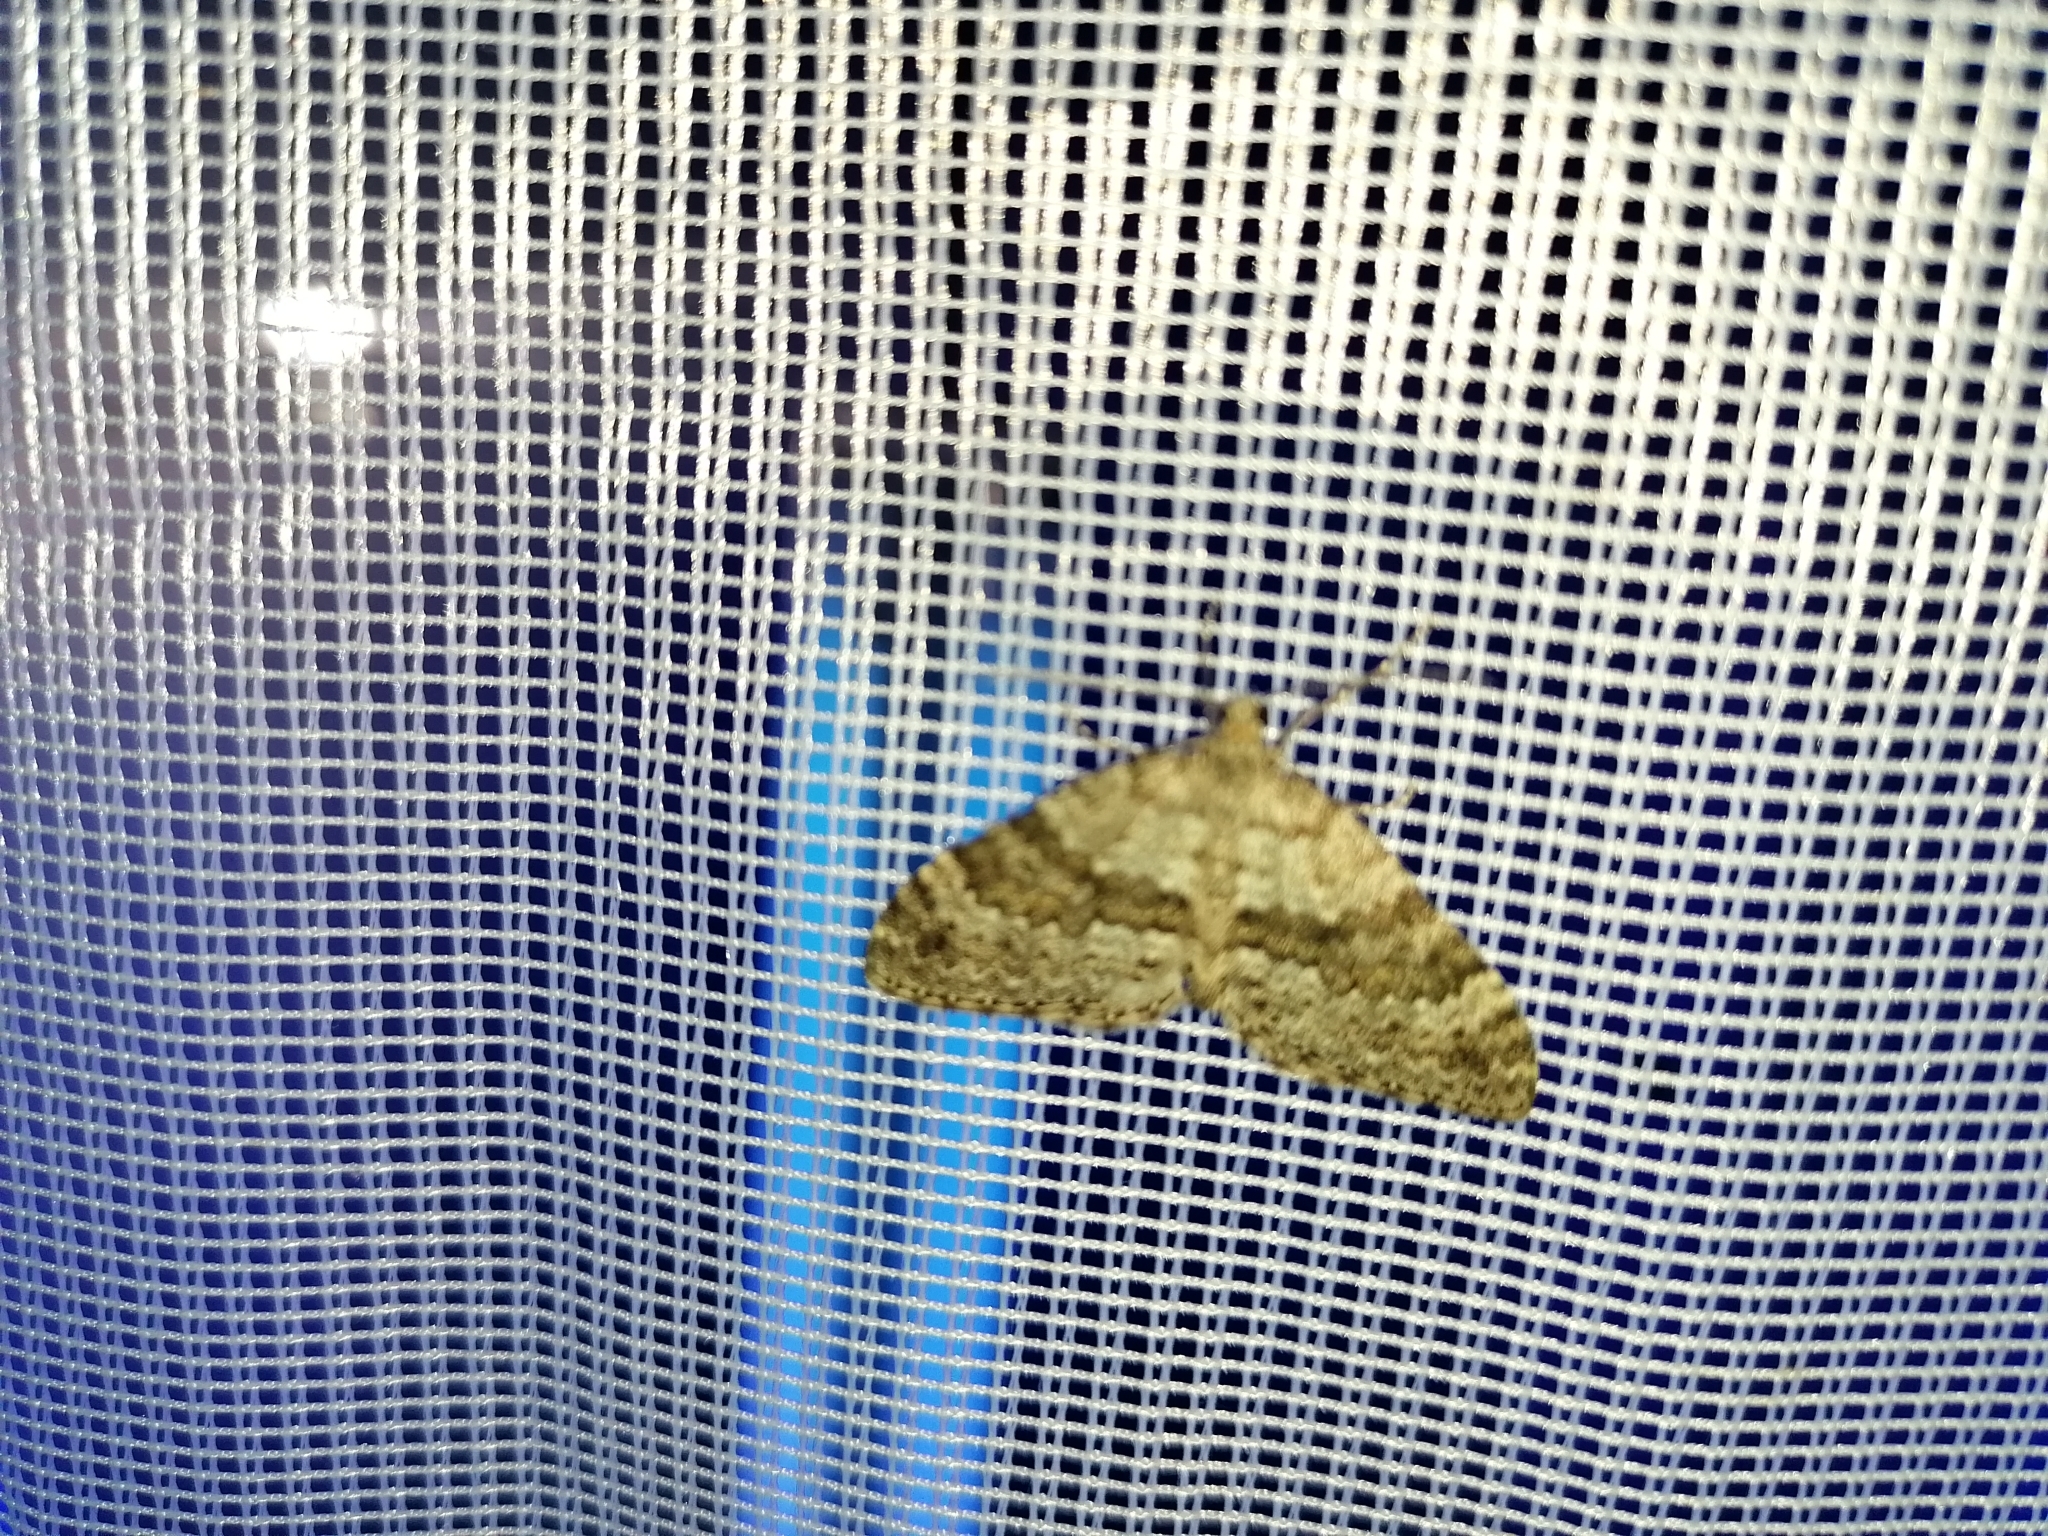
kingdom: Animalia
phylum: Arthropoda
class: Insecta
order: Lepidoptera
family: Geometridae
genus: Entephria
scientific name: Entephria caesiata
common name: Grey mountain moth
